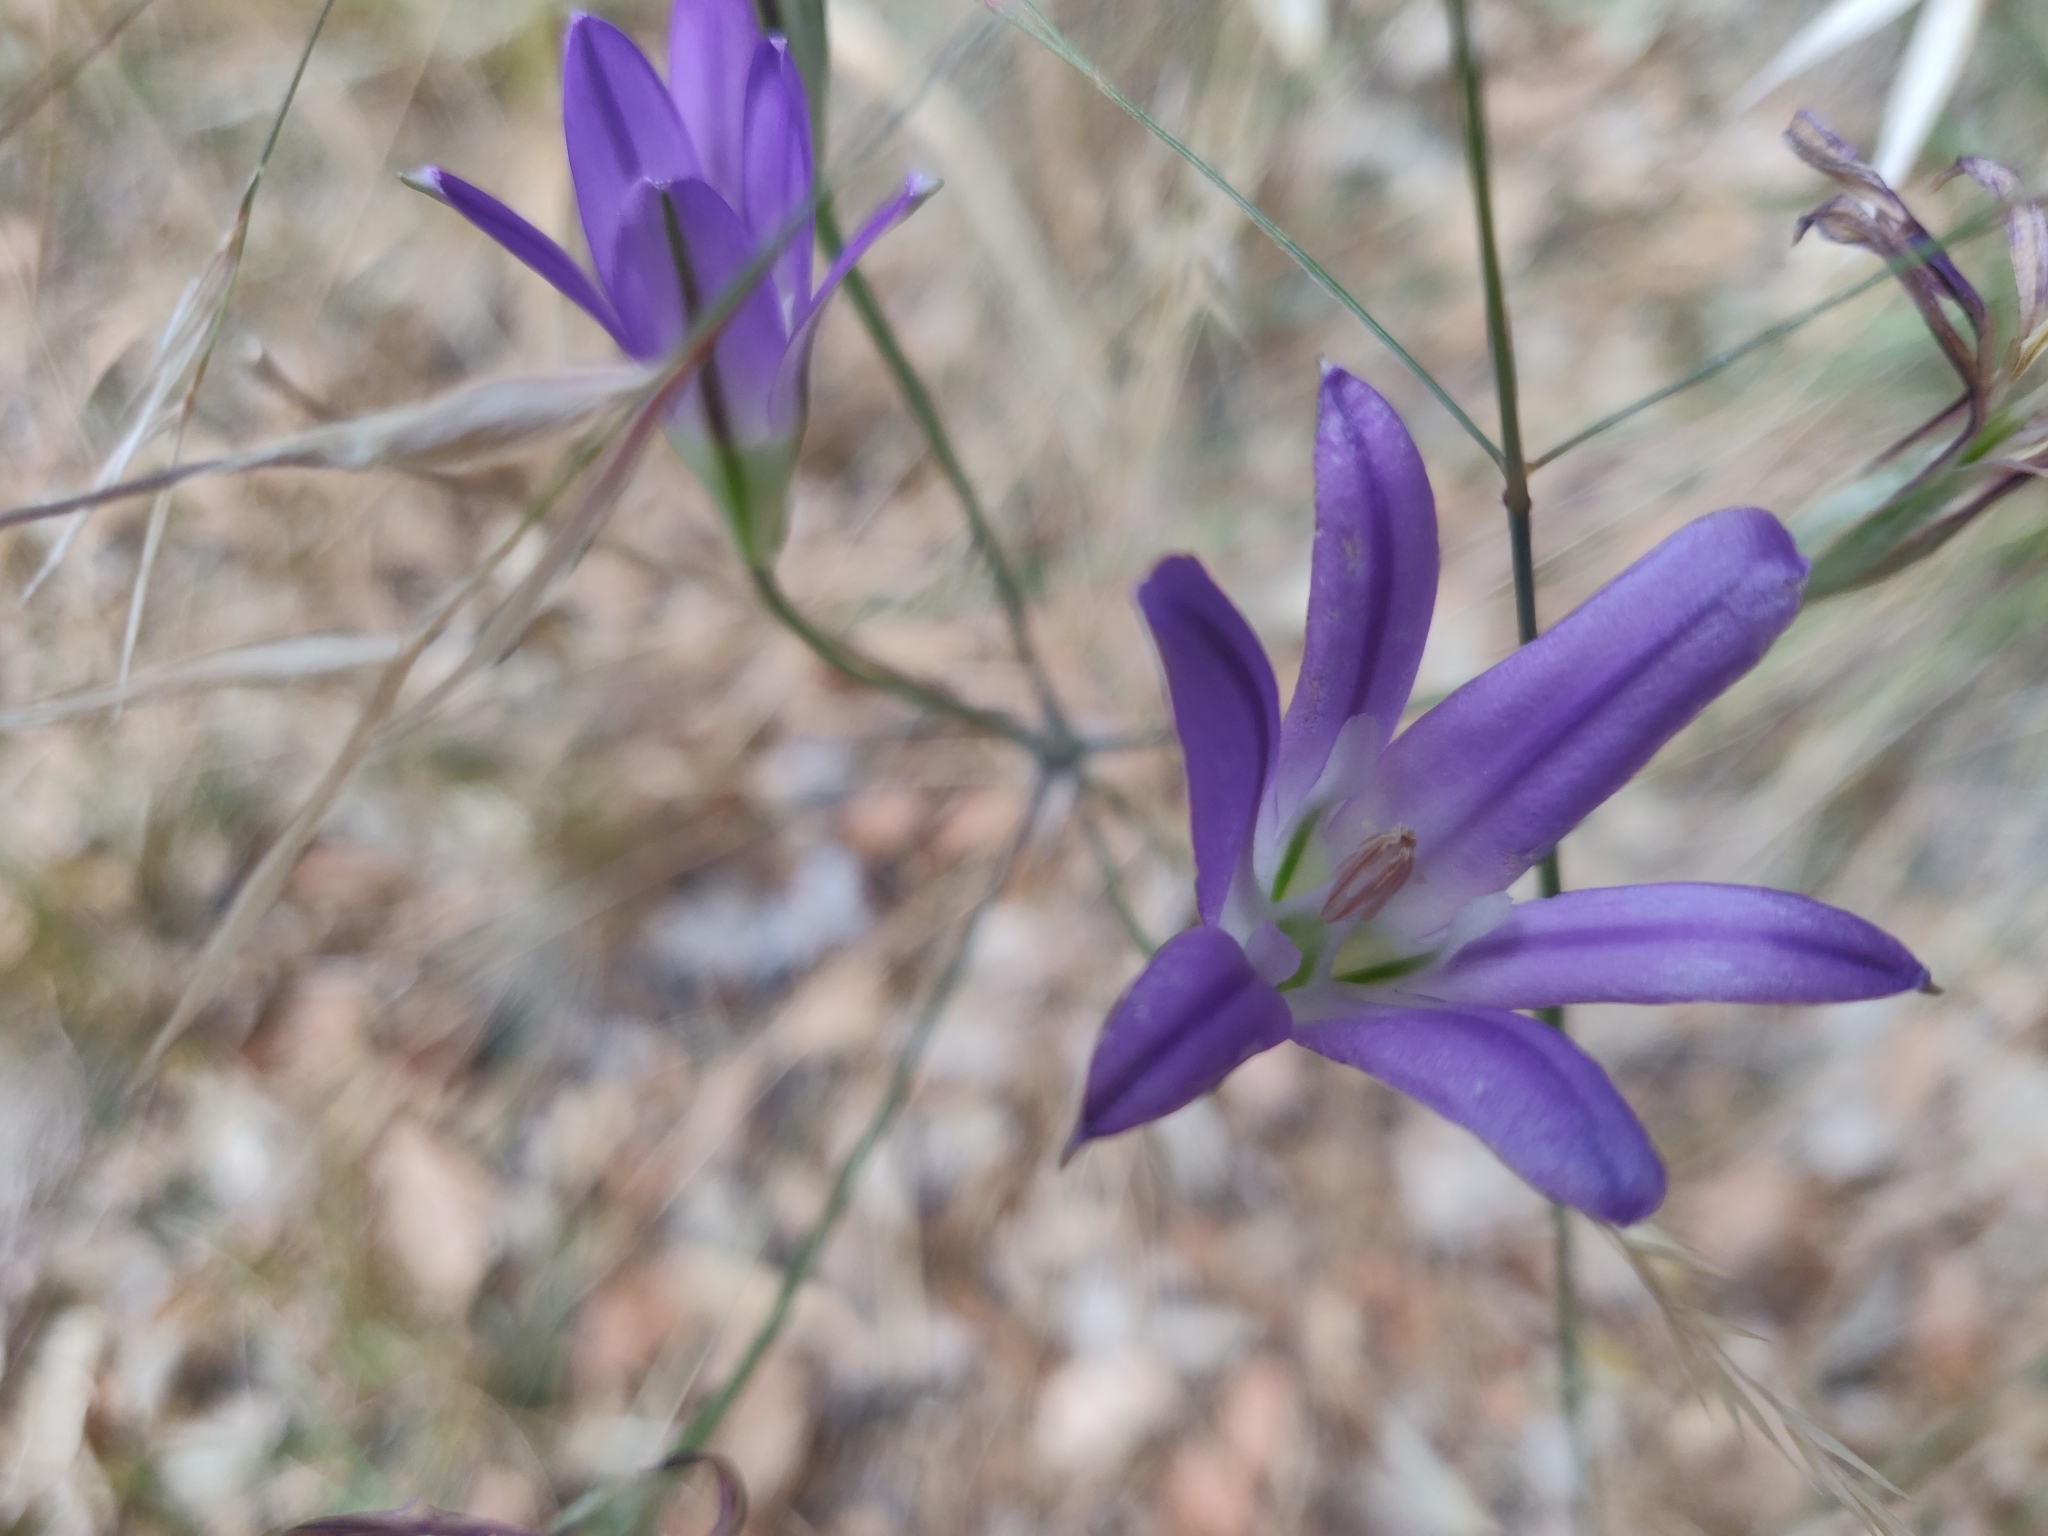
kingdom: Plantae
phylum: Tracheophyta
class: Liliopsida
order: Asparagales
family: Asparagaceae
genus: Brodiaea
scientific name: Brodiaea elegans
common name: Elegant cluster-lily
